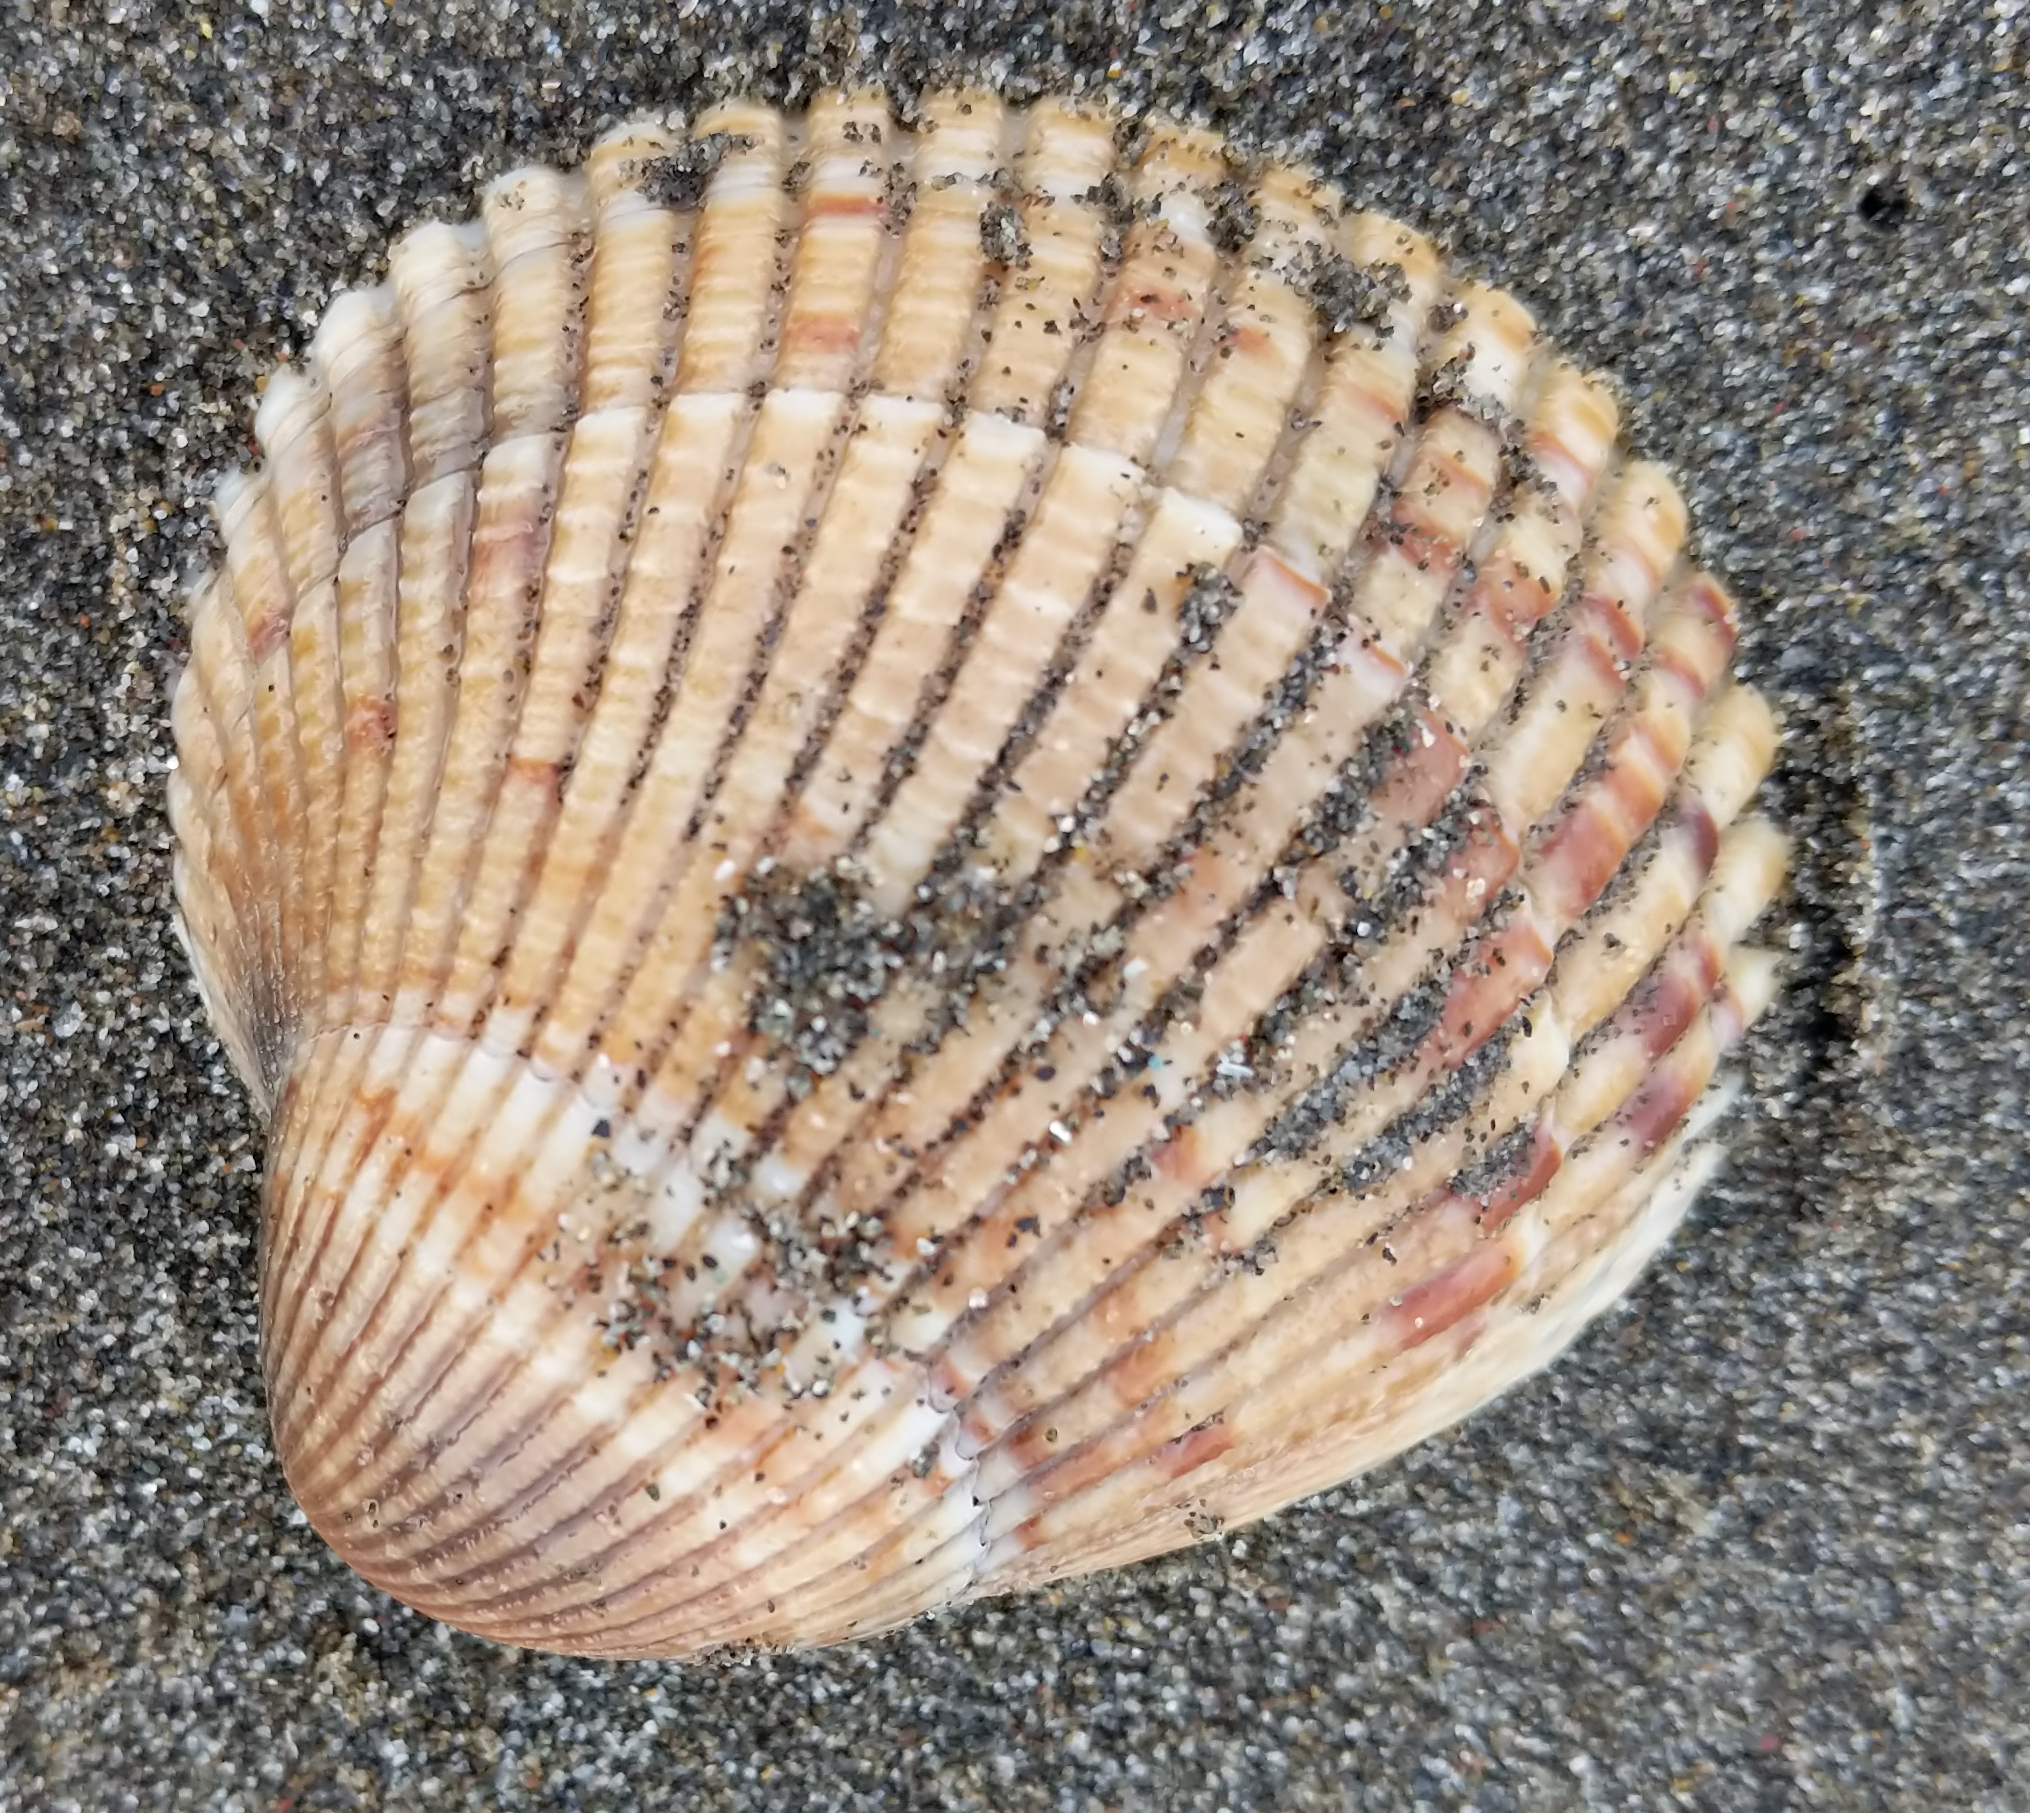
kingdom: Animalia
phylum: Mollusca
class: Bivalvia
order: Cardiida
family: Cardiidae
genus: Clinocardium
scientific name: Clinocardium nuttallii
